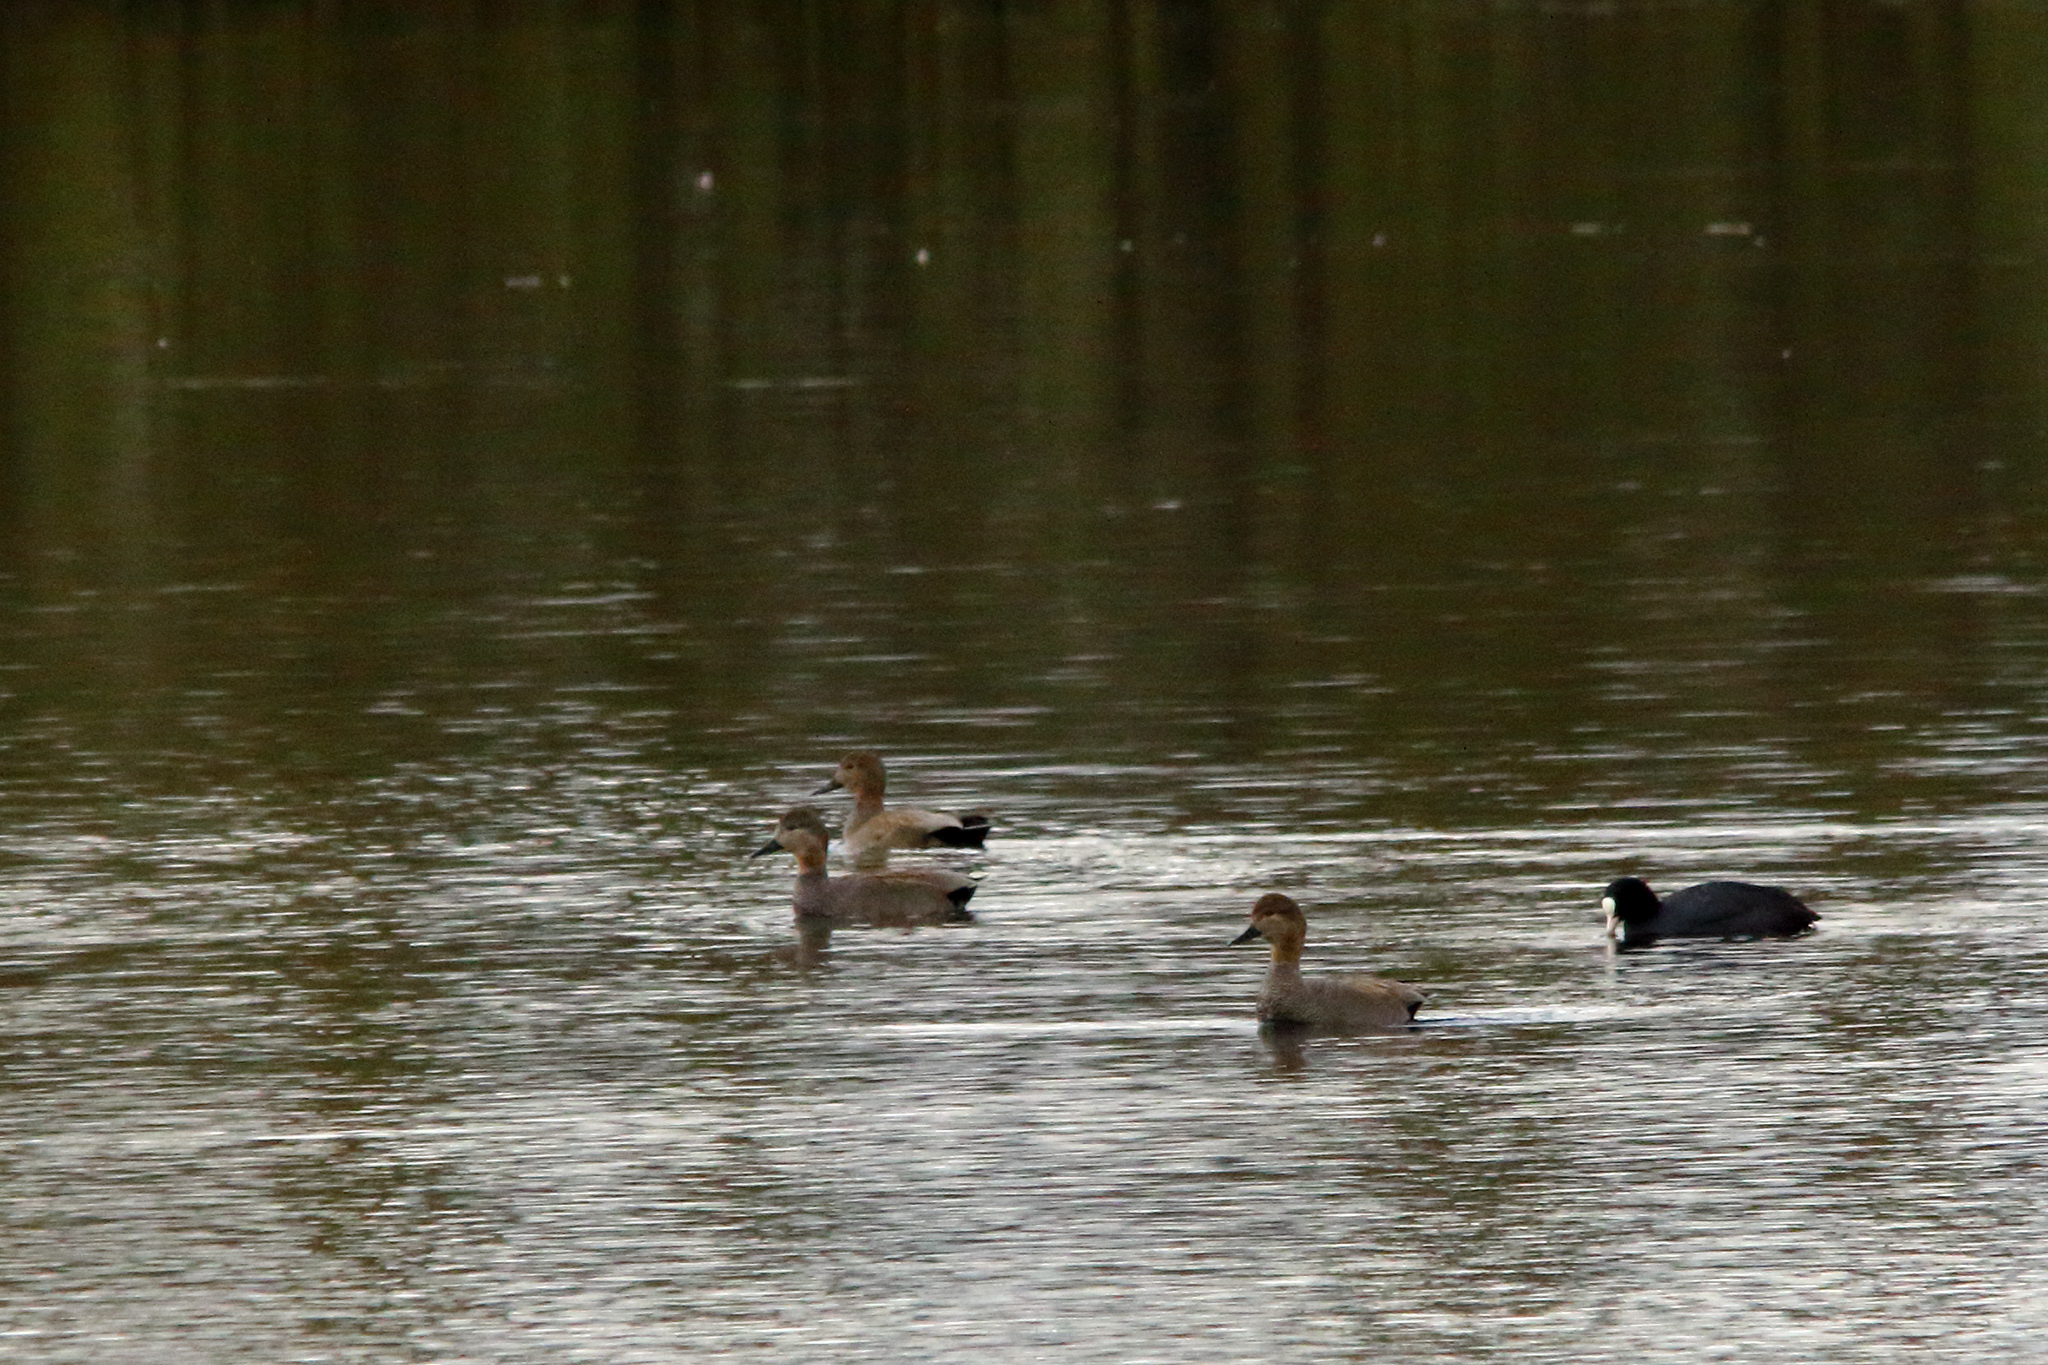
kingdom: Animalia
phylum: Chordata
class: Aves
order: Anseriformes
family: Anatidae
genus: Mareca
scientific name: Mareca strepera
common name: Gadwall
